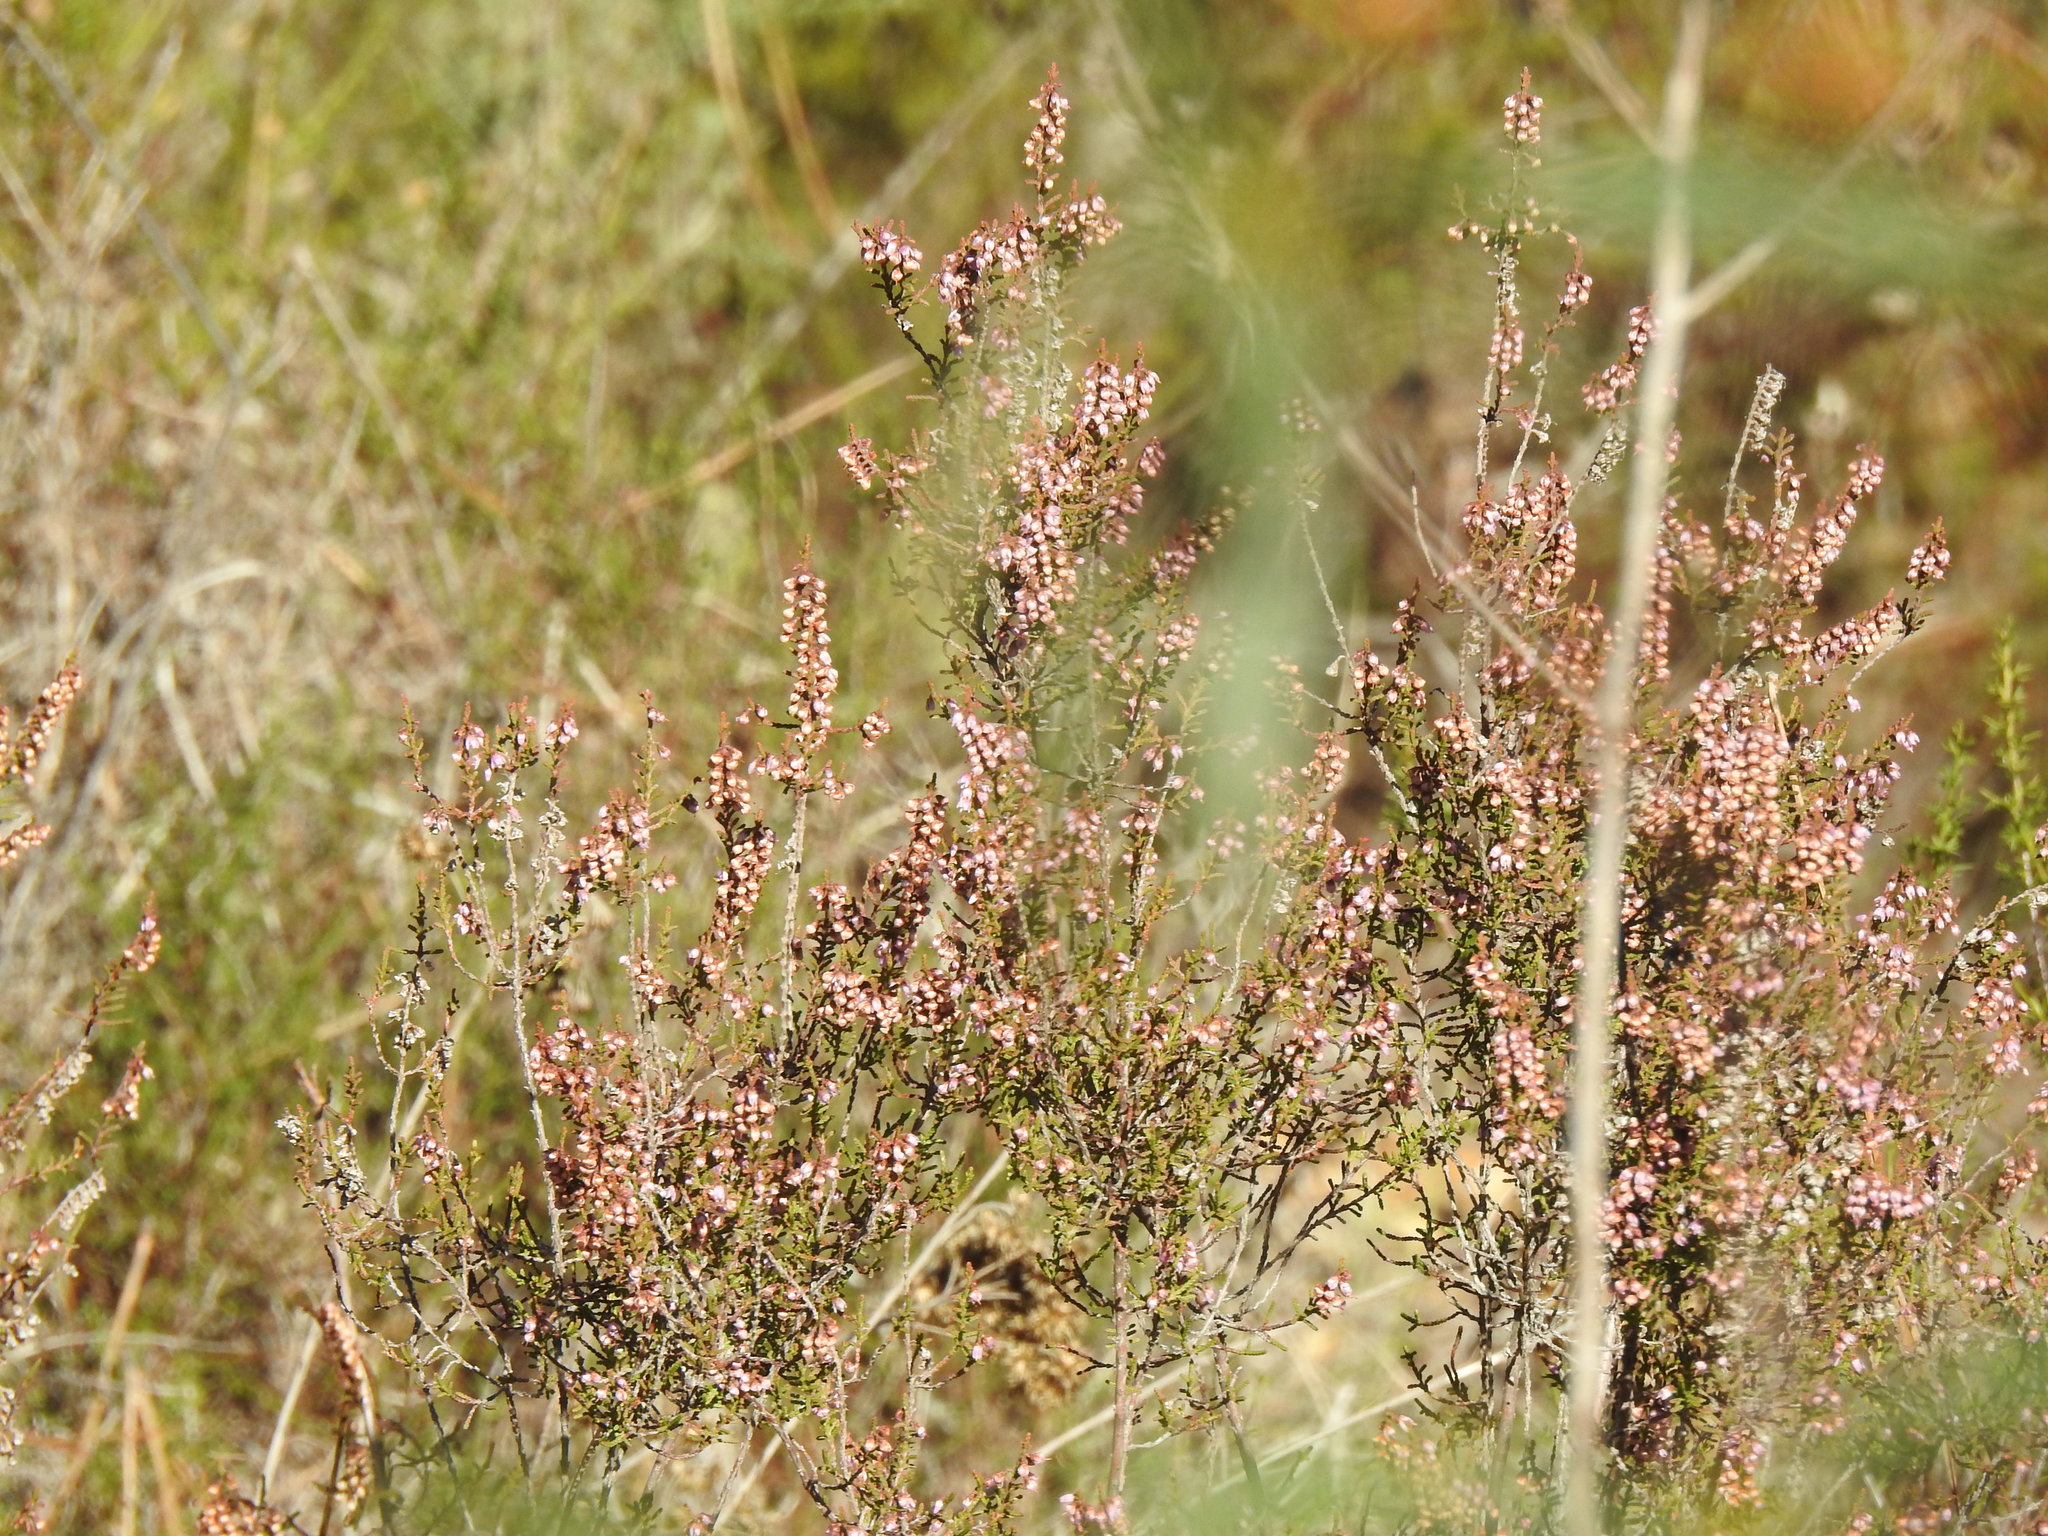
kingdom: Plantae
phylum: Tracheophyta
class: Magnoliopsida
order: Ericales
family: Ericaceae
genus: Calluna
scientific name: Calluna vulgaris
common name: Heather
